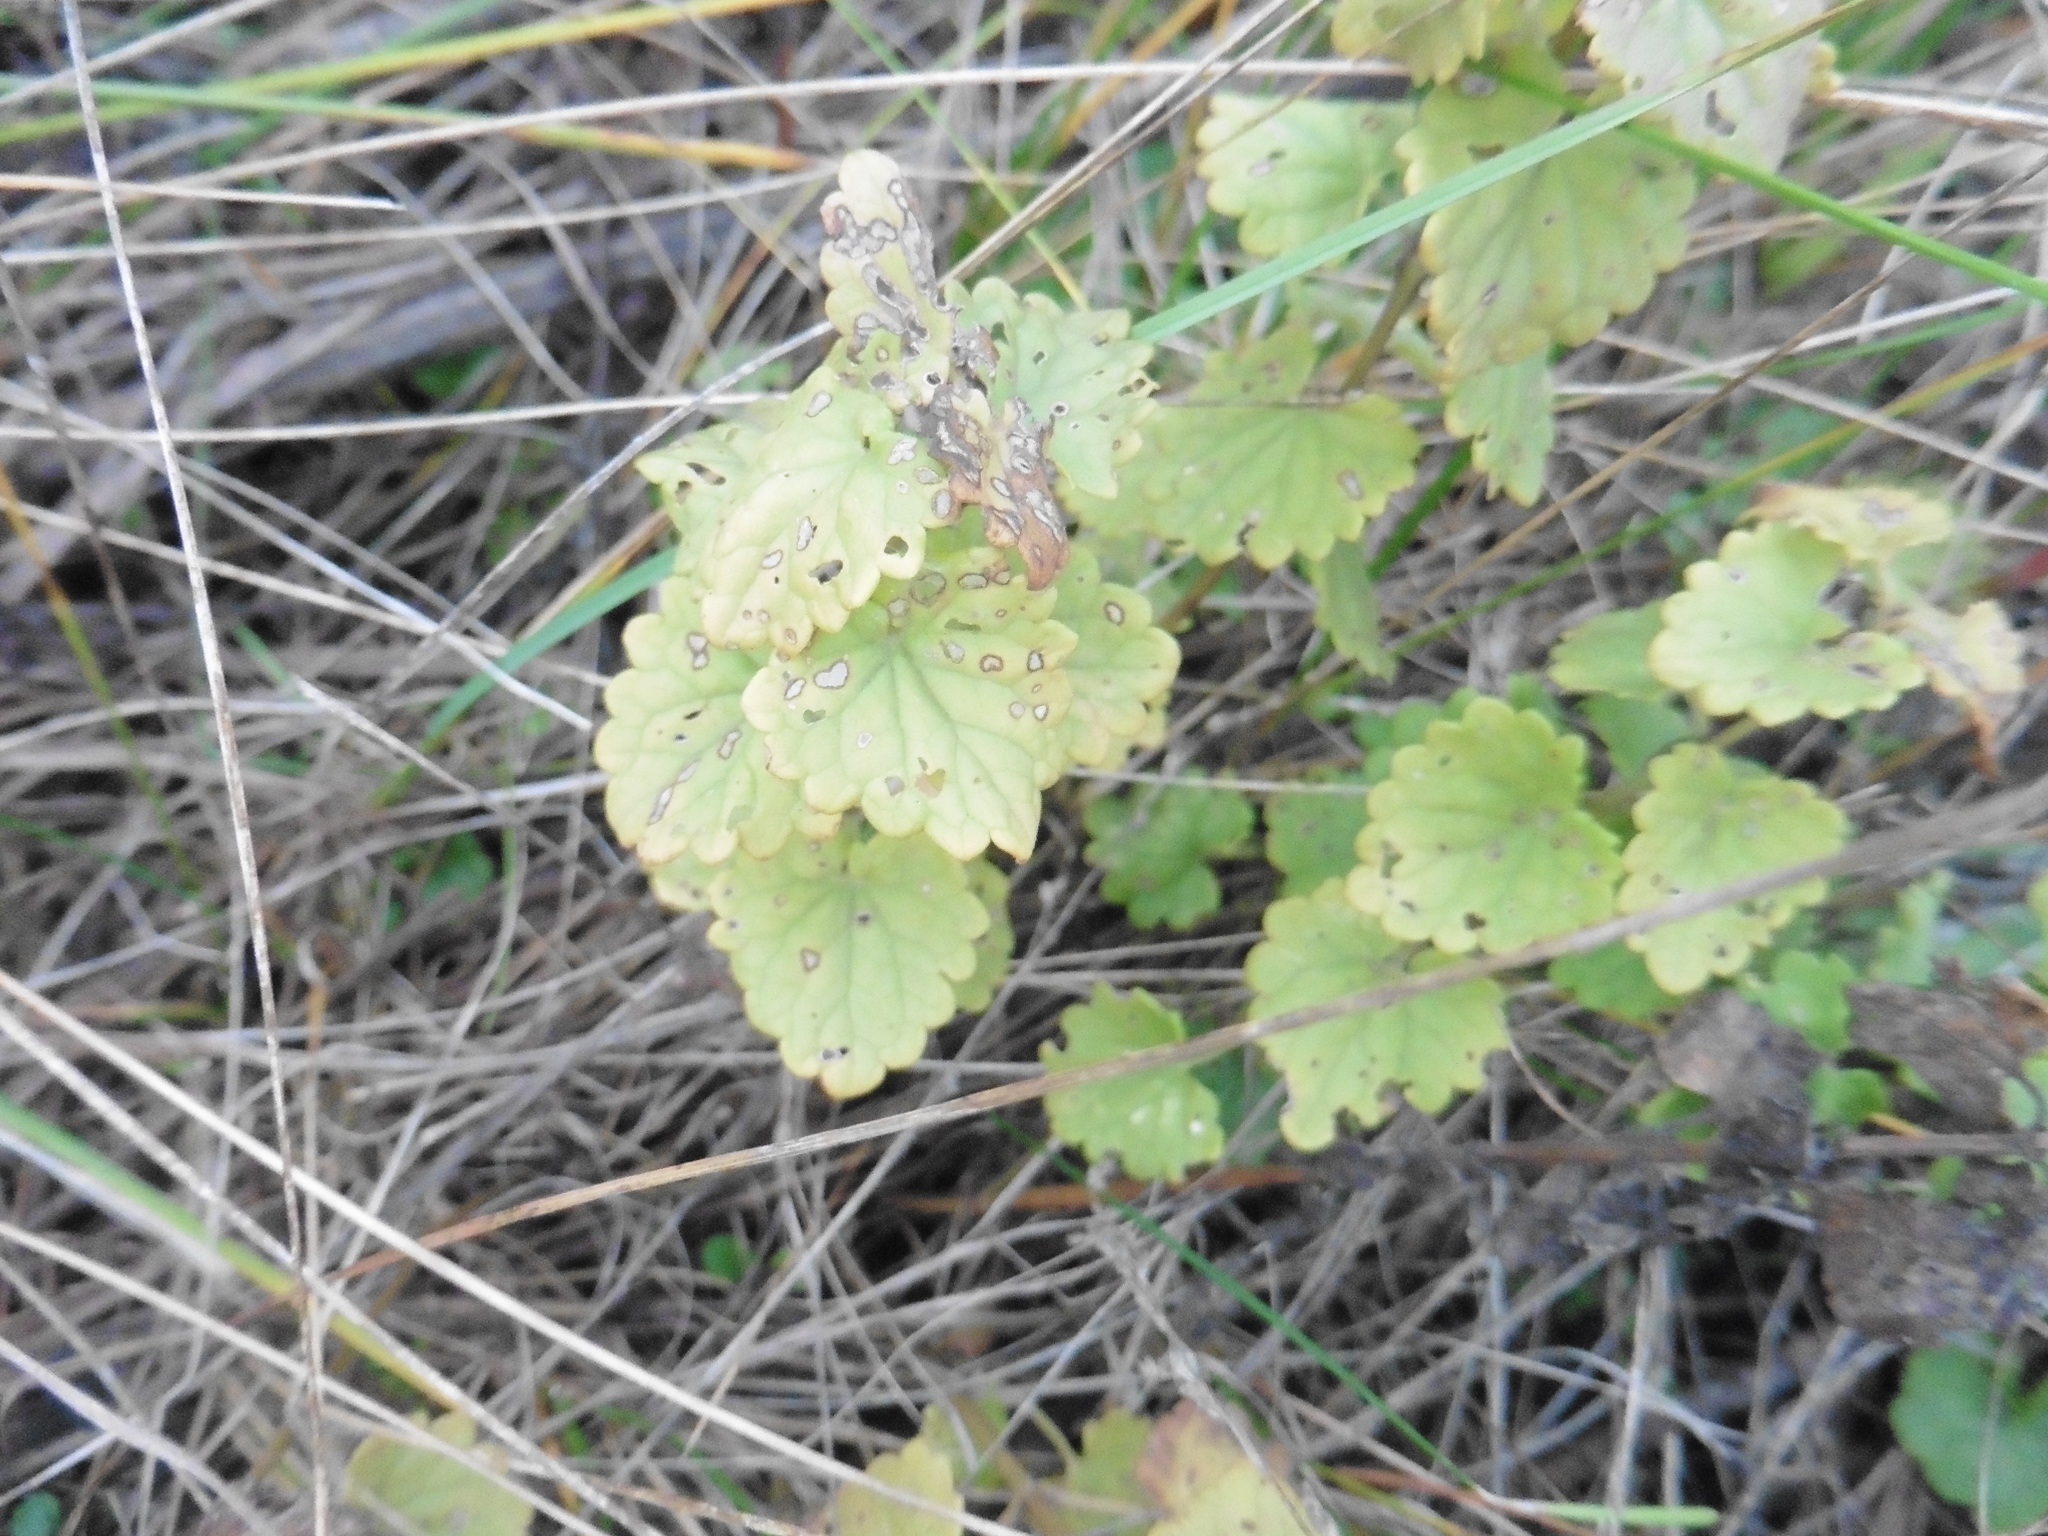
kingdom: Plantae
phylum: Tracheophyta
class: Magnoliopsida
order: Lamiales
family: Lamiaceae
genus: Glechoma
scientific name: Glechoma hederacea
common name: Ground ivy
